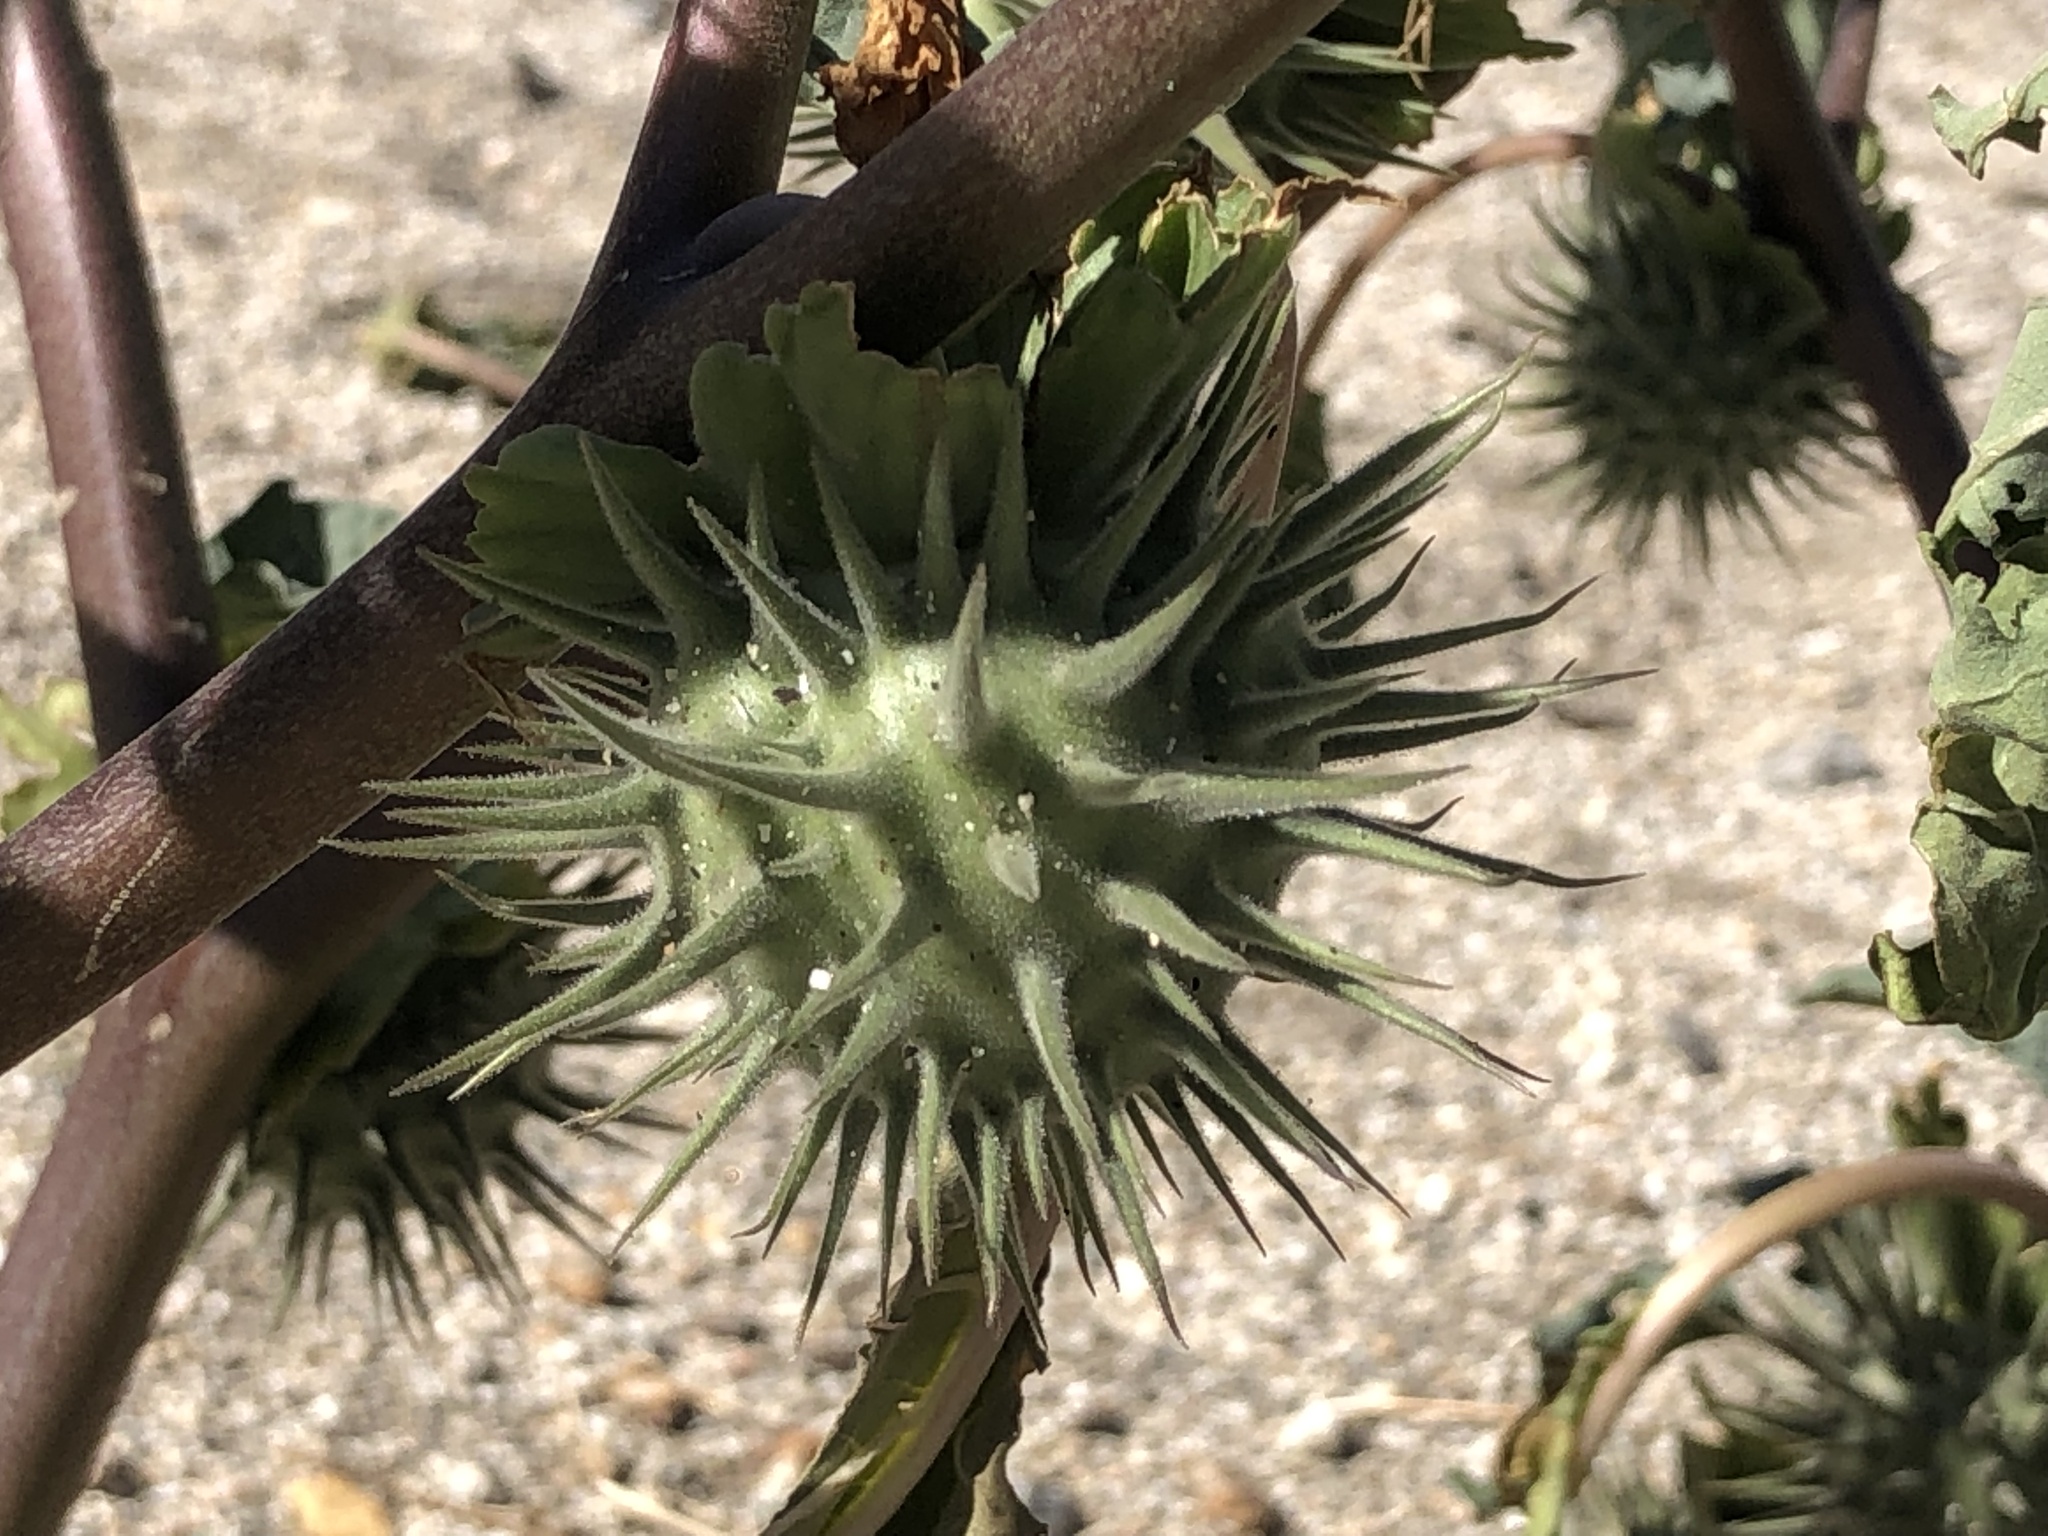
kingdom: Plantae
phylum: Tracheophyta
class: Magnoliopsida
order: Solanales
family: Solanaceae
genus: Datura
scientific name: Datura discolor
